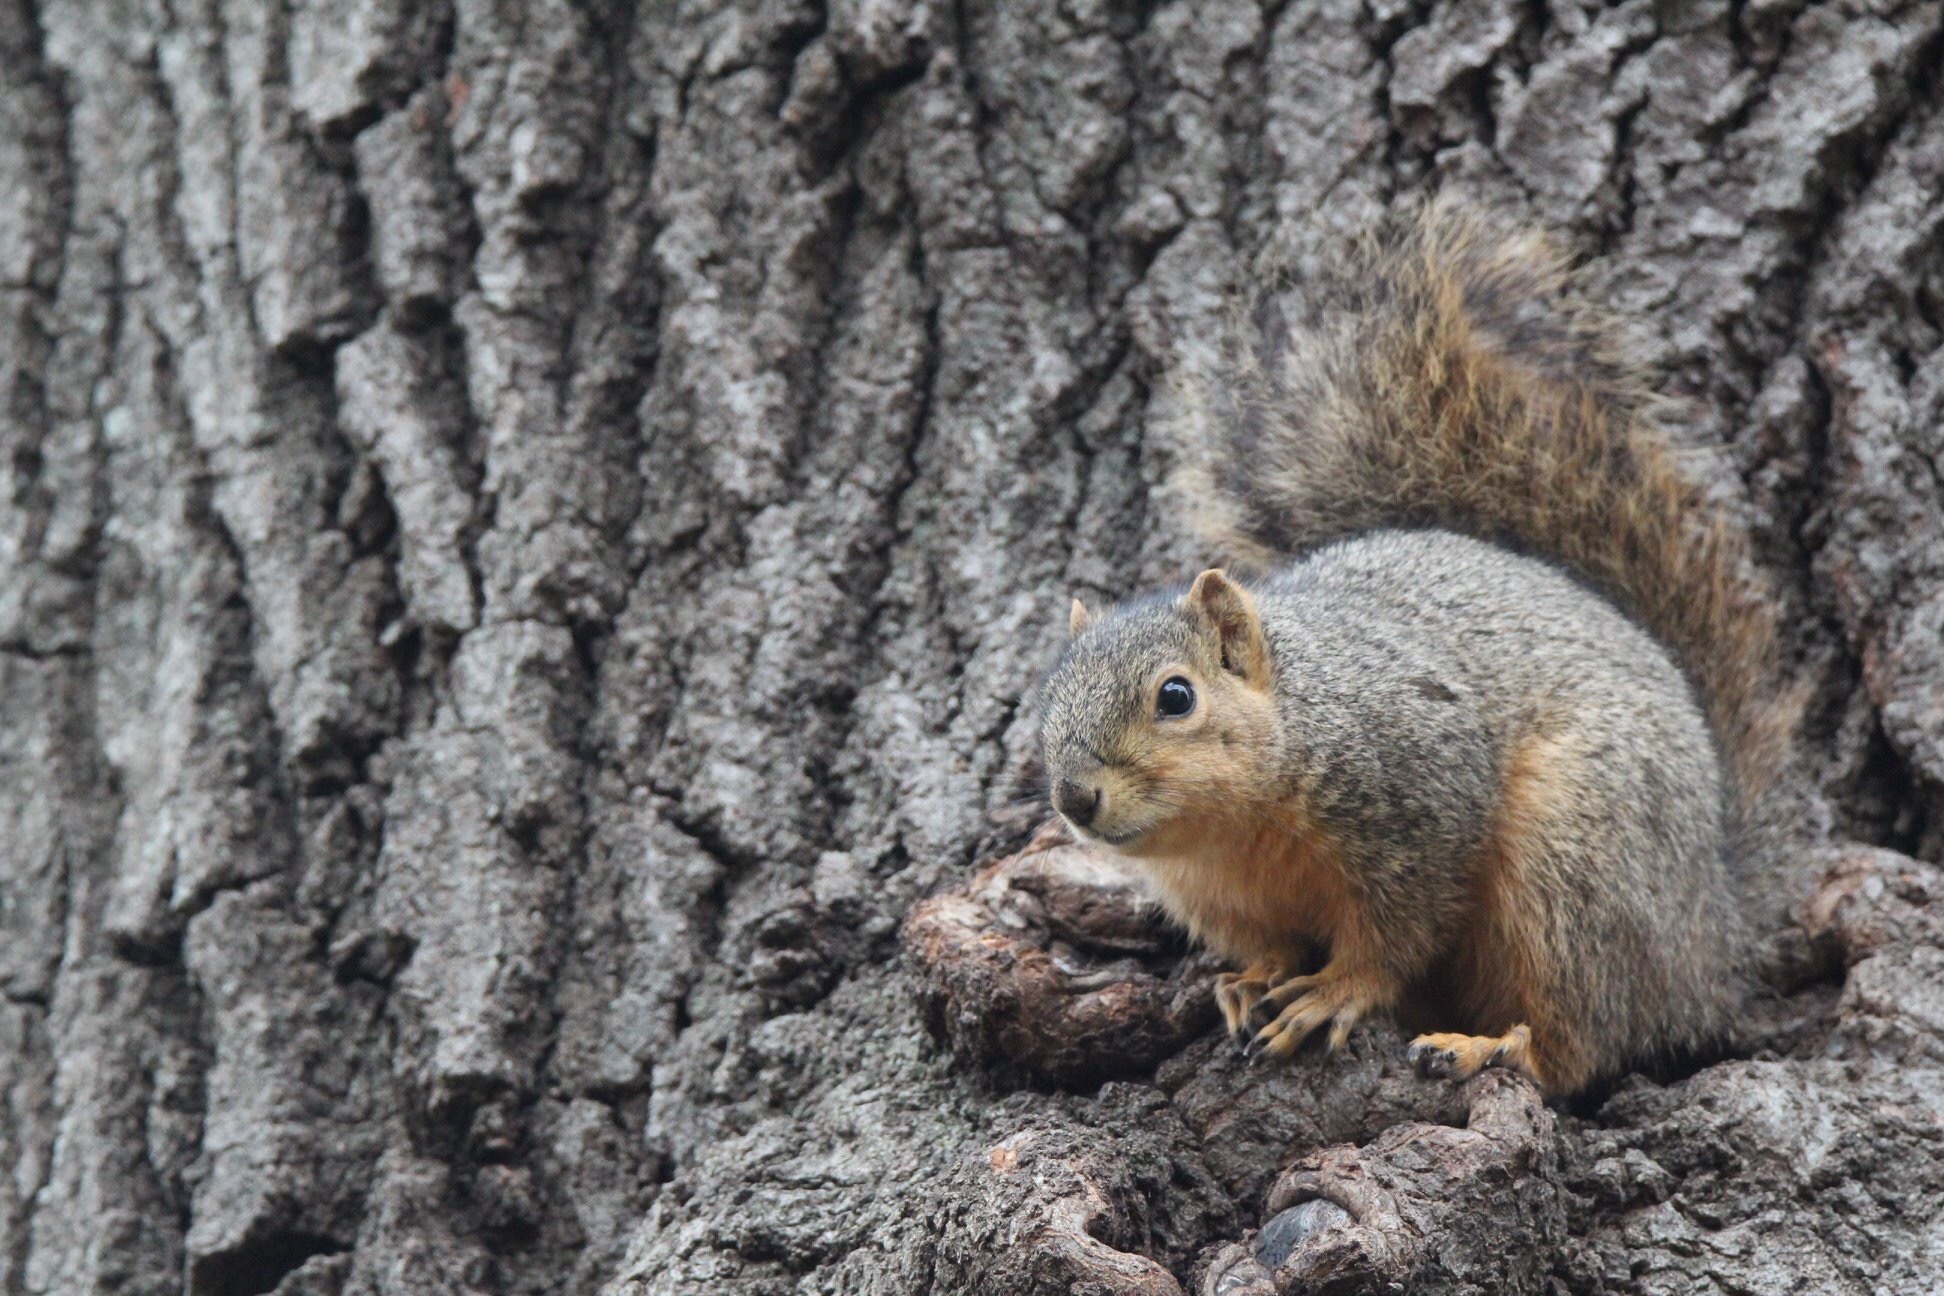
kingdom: Animalia
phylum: Chordata
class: Mammalia
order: Rodentia
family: Sciuridae
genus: Sciurus
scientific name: Sciurus niger
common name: Fox squirrel
